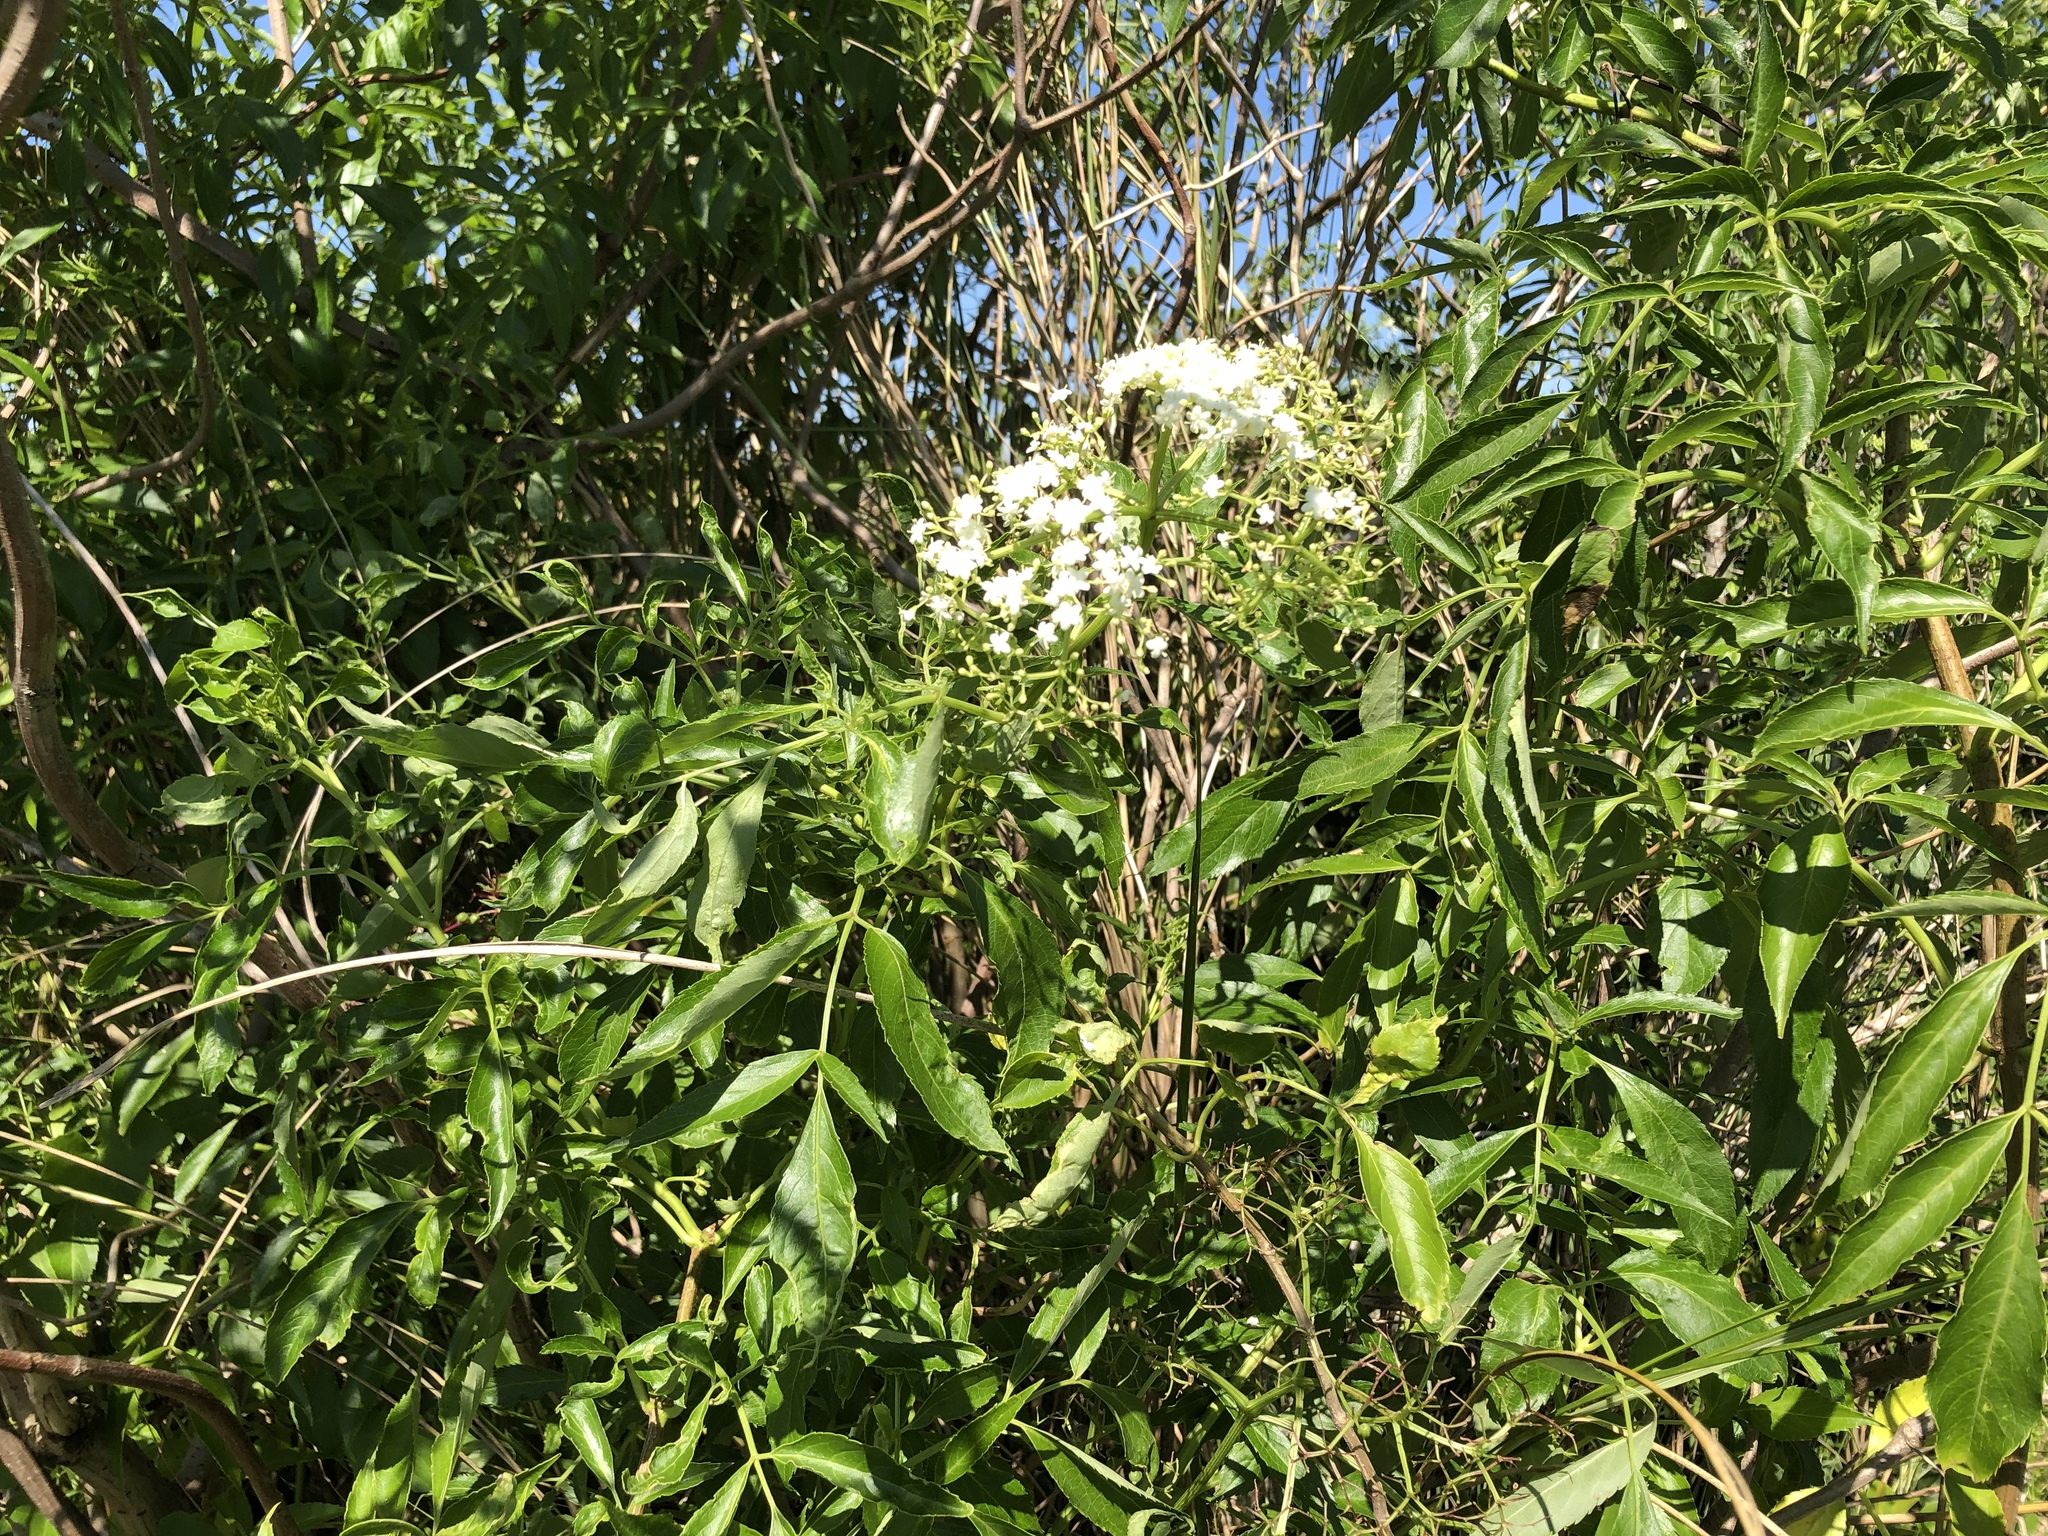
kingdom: Plantae
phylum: Tracheophyta
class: Magnoliopsida
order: Dipsacales
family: Viburnaceae
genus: Sambucus
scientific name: Sambucus canadensis
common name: American elder
